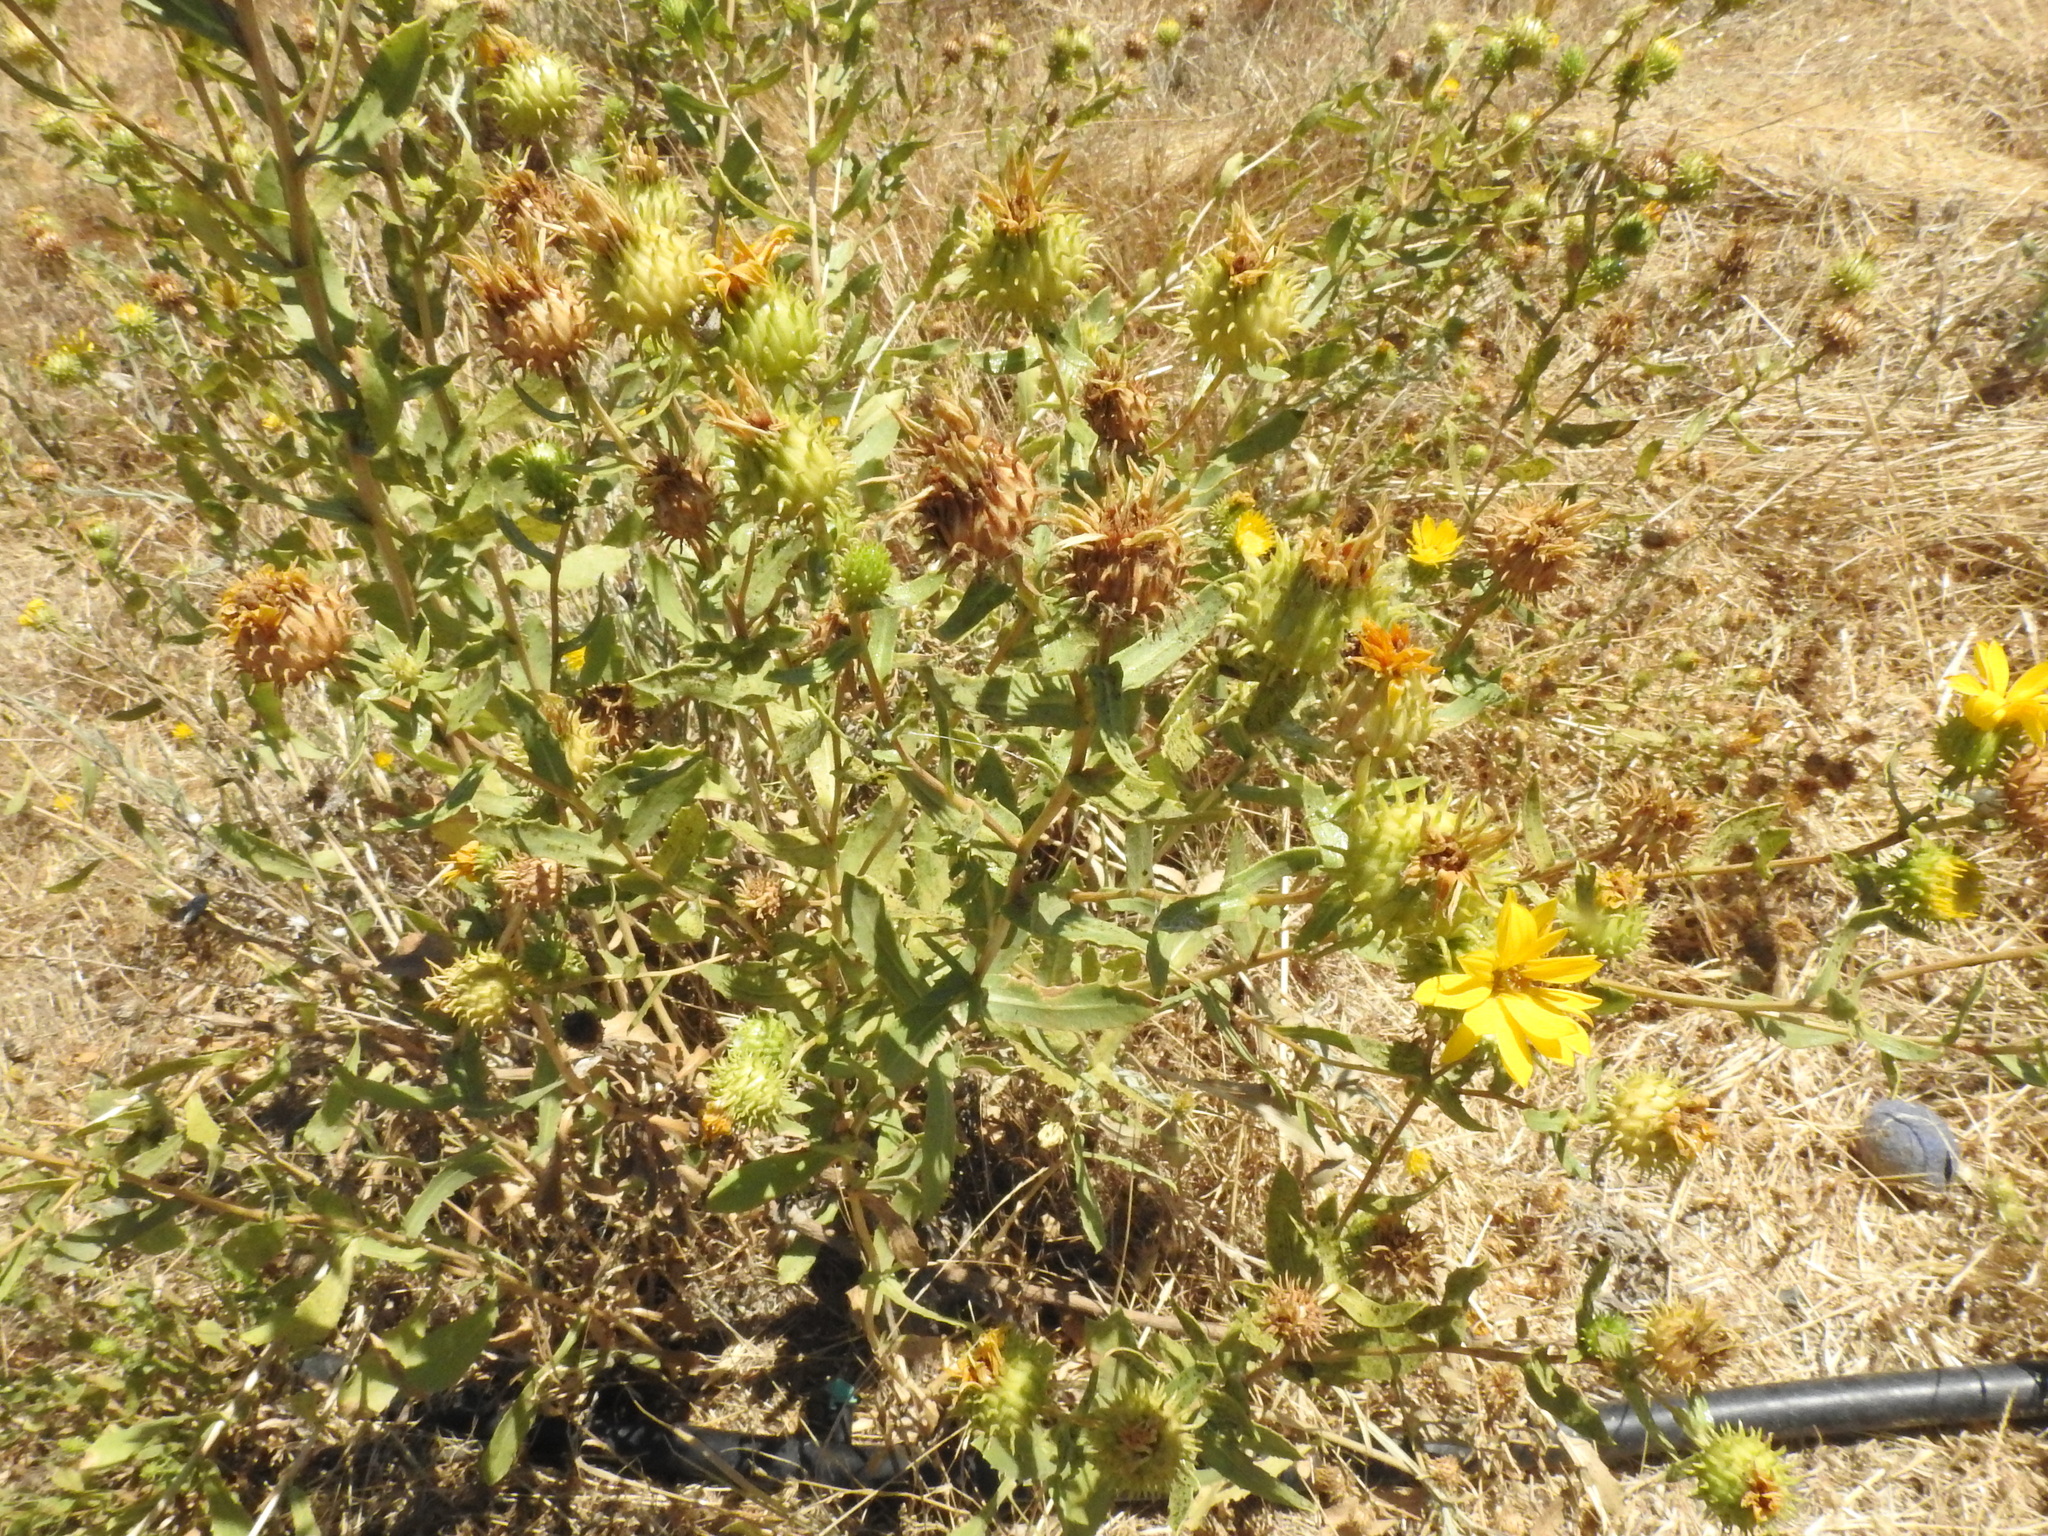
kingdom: Plantae
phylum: Tracheophyta
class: Magnoliopsida
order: Asterales
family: Asteraceae
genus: Grindelia
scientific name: Grindelia hirsutula
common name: Hairy gumweed
